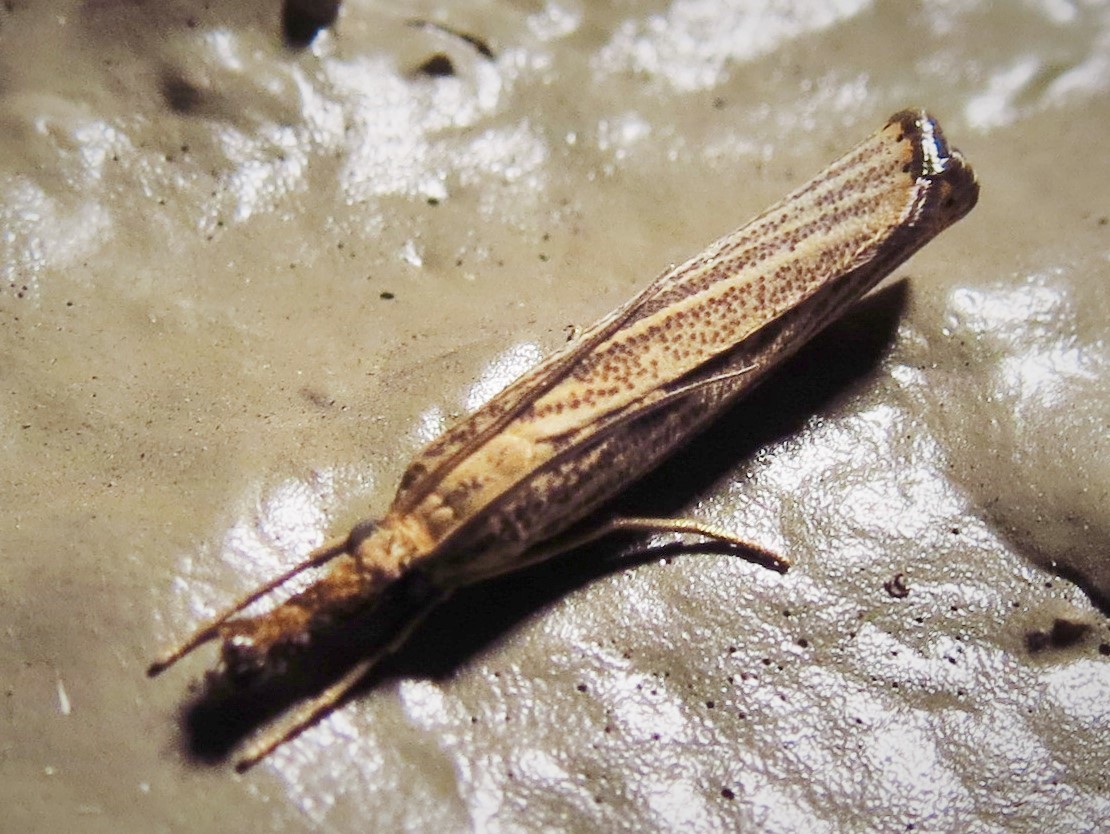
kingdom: Animalia
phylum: Arthropoda
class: Insecta
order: Lepidoptera
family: Crambidae
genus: Agriphila
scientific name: Agriphila vulgivagellus
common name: Vagabond crambus moth
